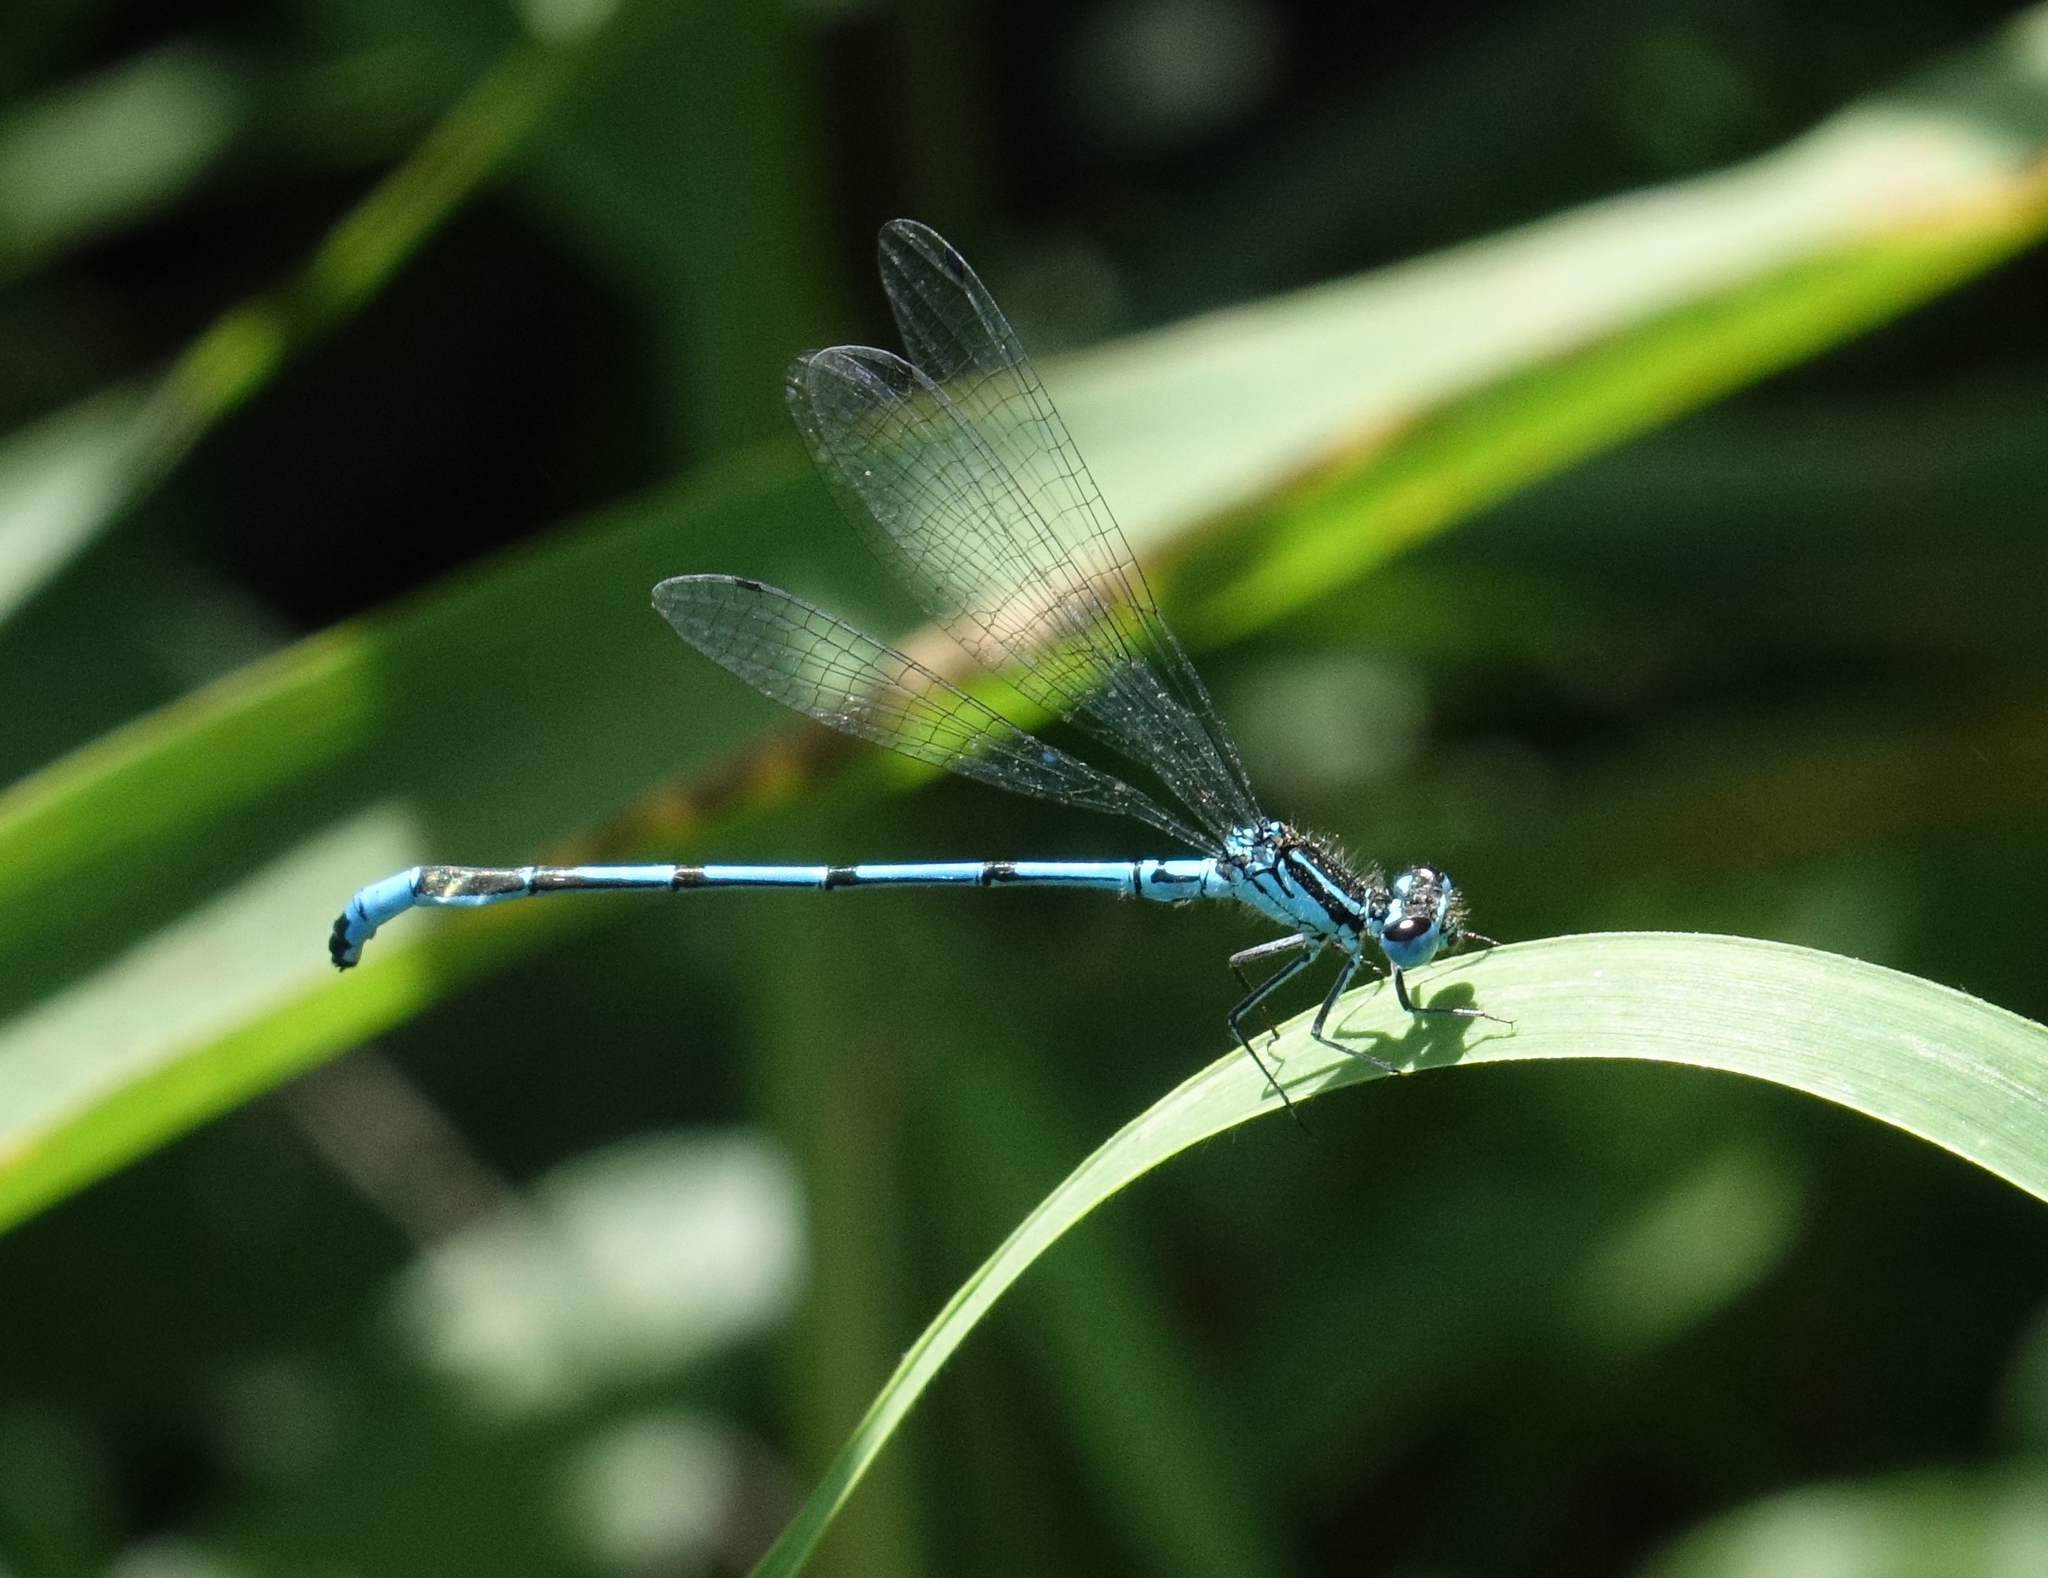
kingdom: Animalia
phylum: Arthropoda
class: Insecta
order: Odonata
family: Coenagrionidae
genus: Coenagrion
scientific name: Coenagrion puella
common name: Azure damselfly
